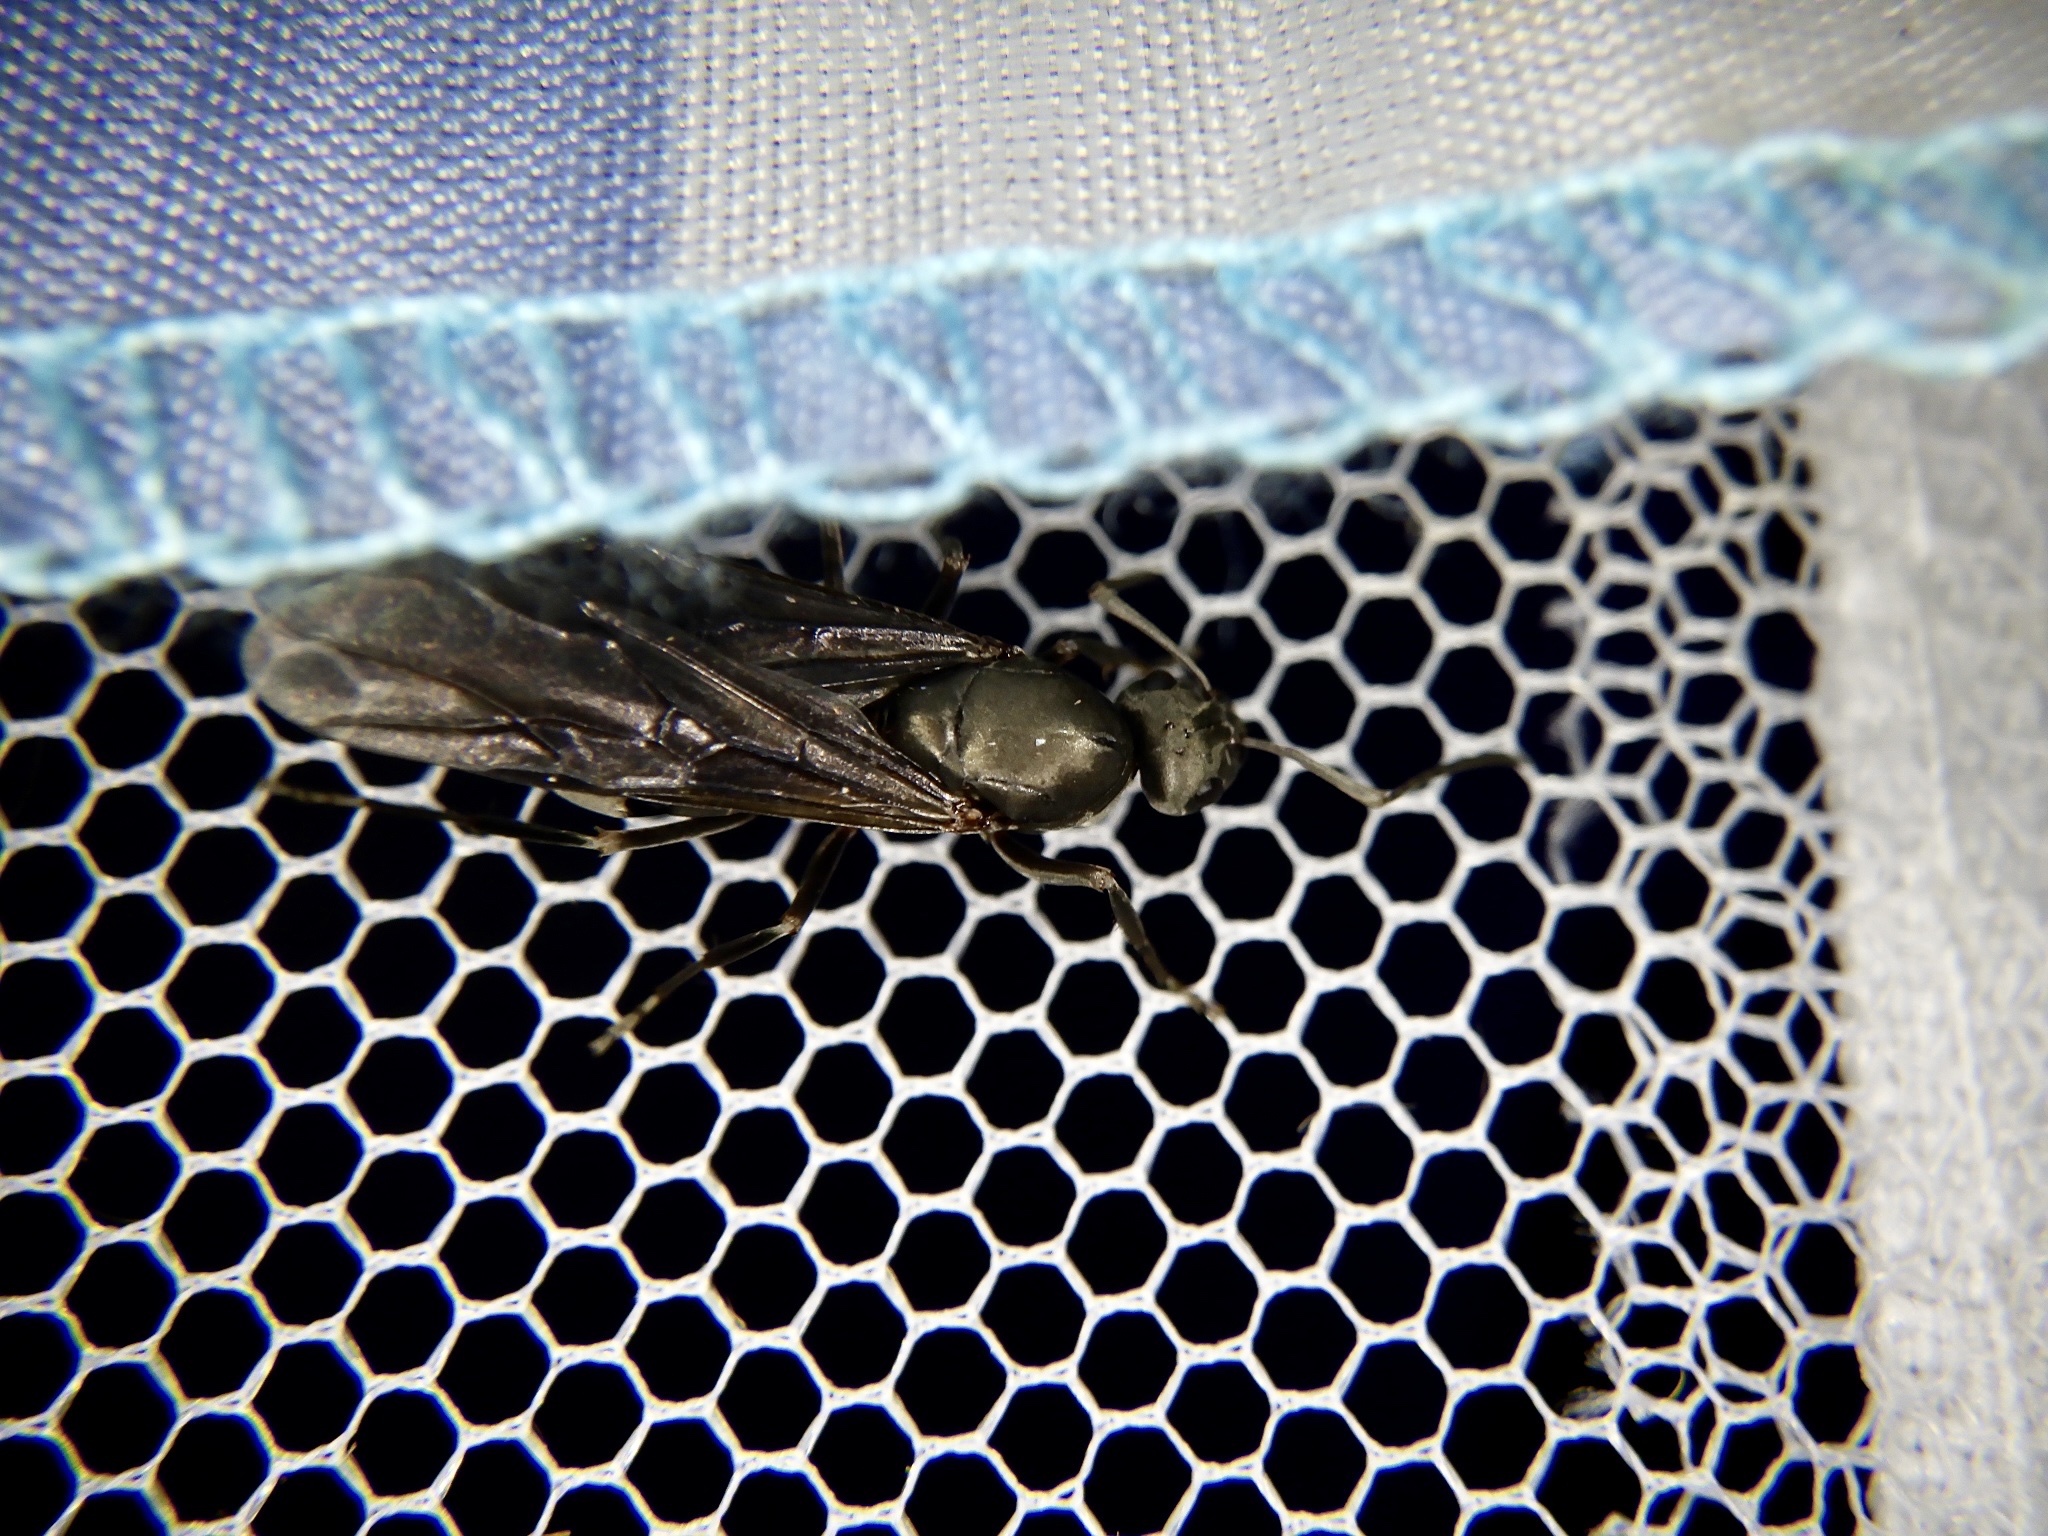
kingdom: Animalia
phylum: Arthropoda
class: Insecta
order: Hymenoptera
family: Formicidae
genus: Formica
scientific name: Formica japonica
